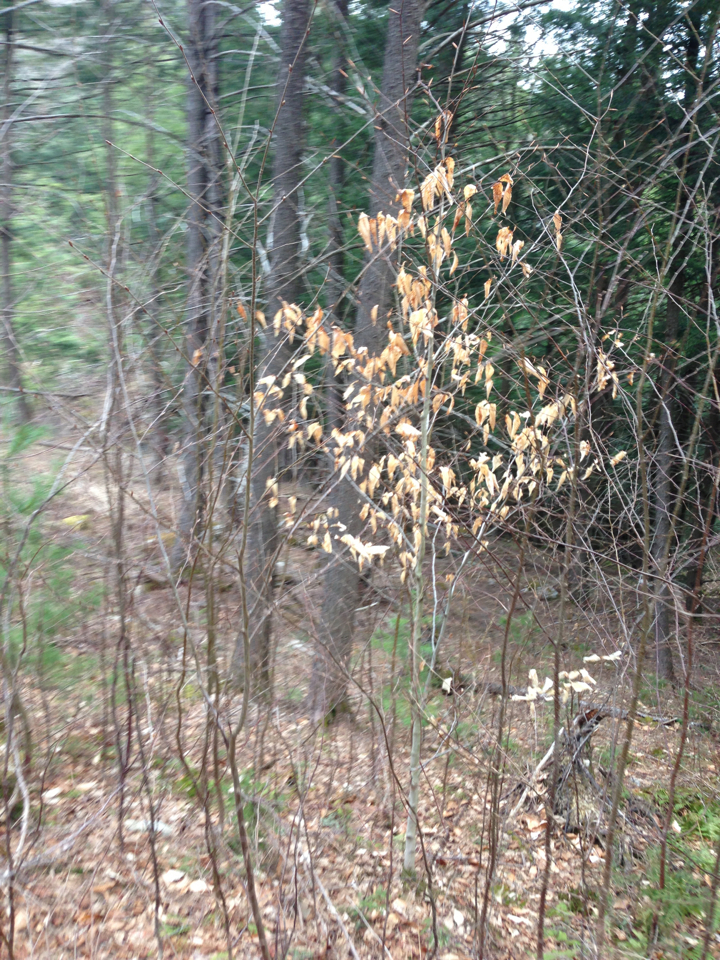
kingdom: Plantae
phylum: Tracheophyta
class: Magnoliopsida
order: Fagales
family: Fagaceae
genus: Fagus
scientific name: Fagus grandifolia
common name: American beech
